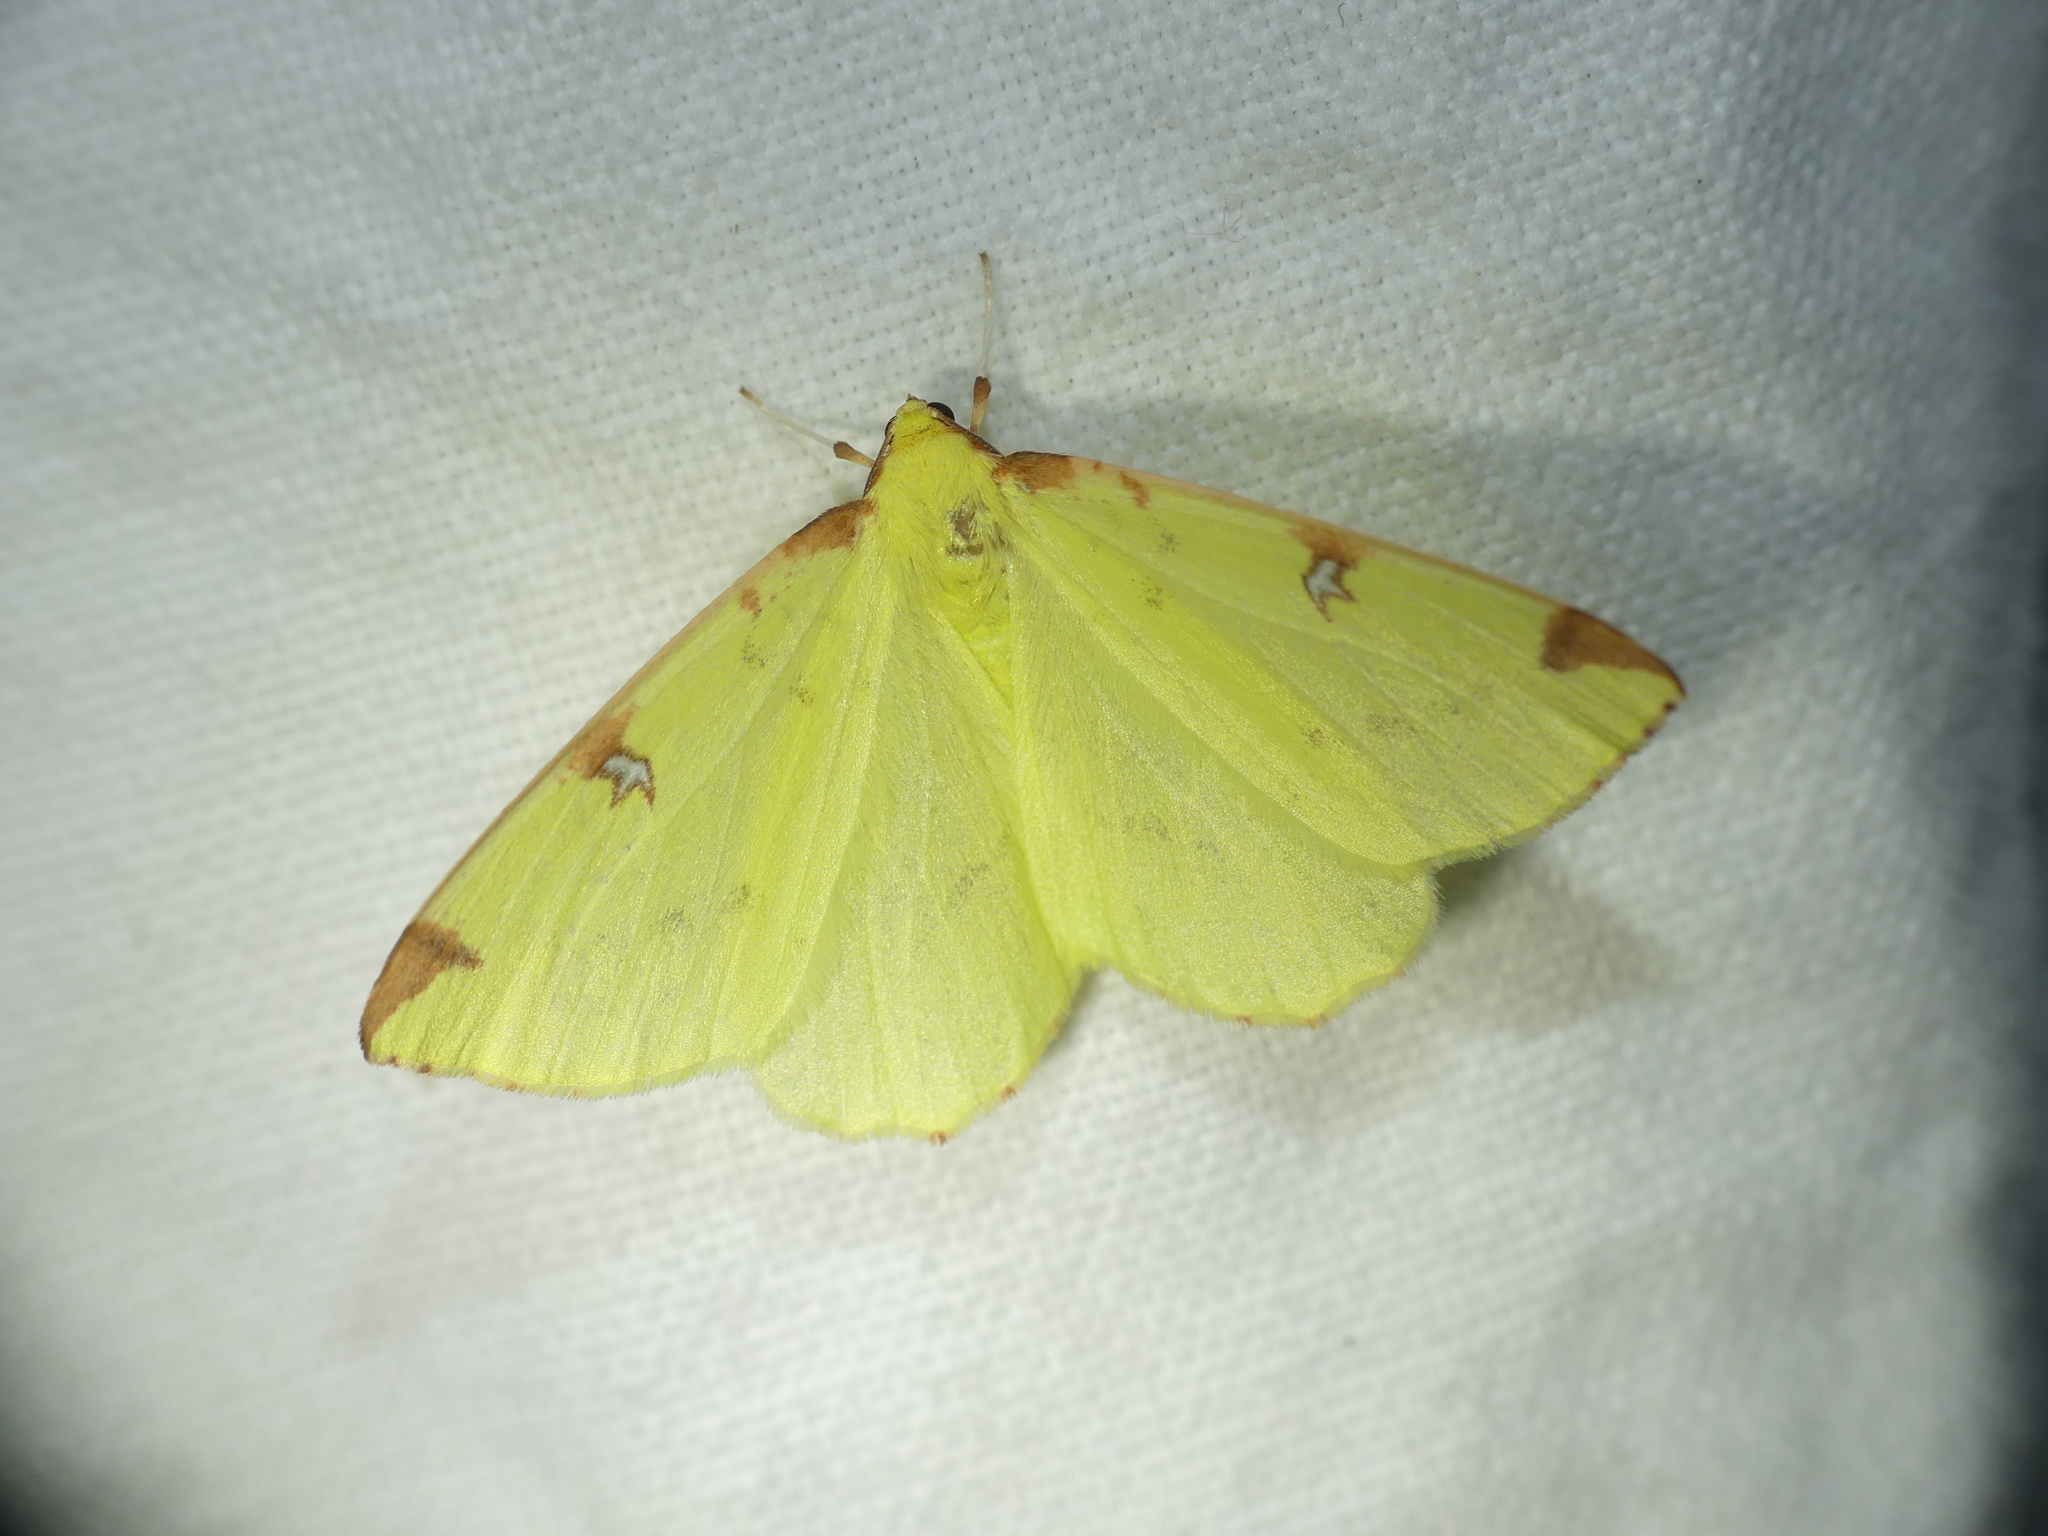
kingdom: Animalia
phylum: Arthropoda
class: Insecta
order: Lepidoptera
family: Geometridae
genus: Opisthograptis
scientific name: Opisthograptis luteolata
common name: Brimstone moth
